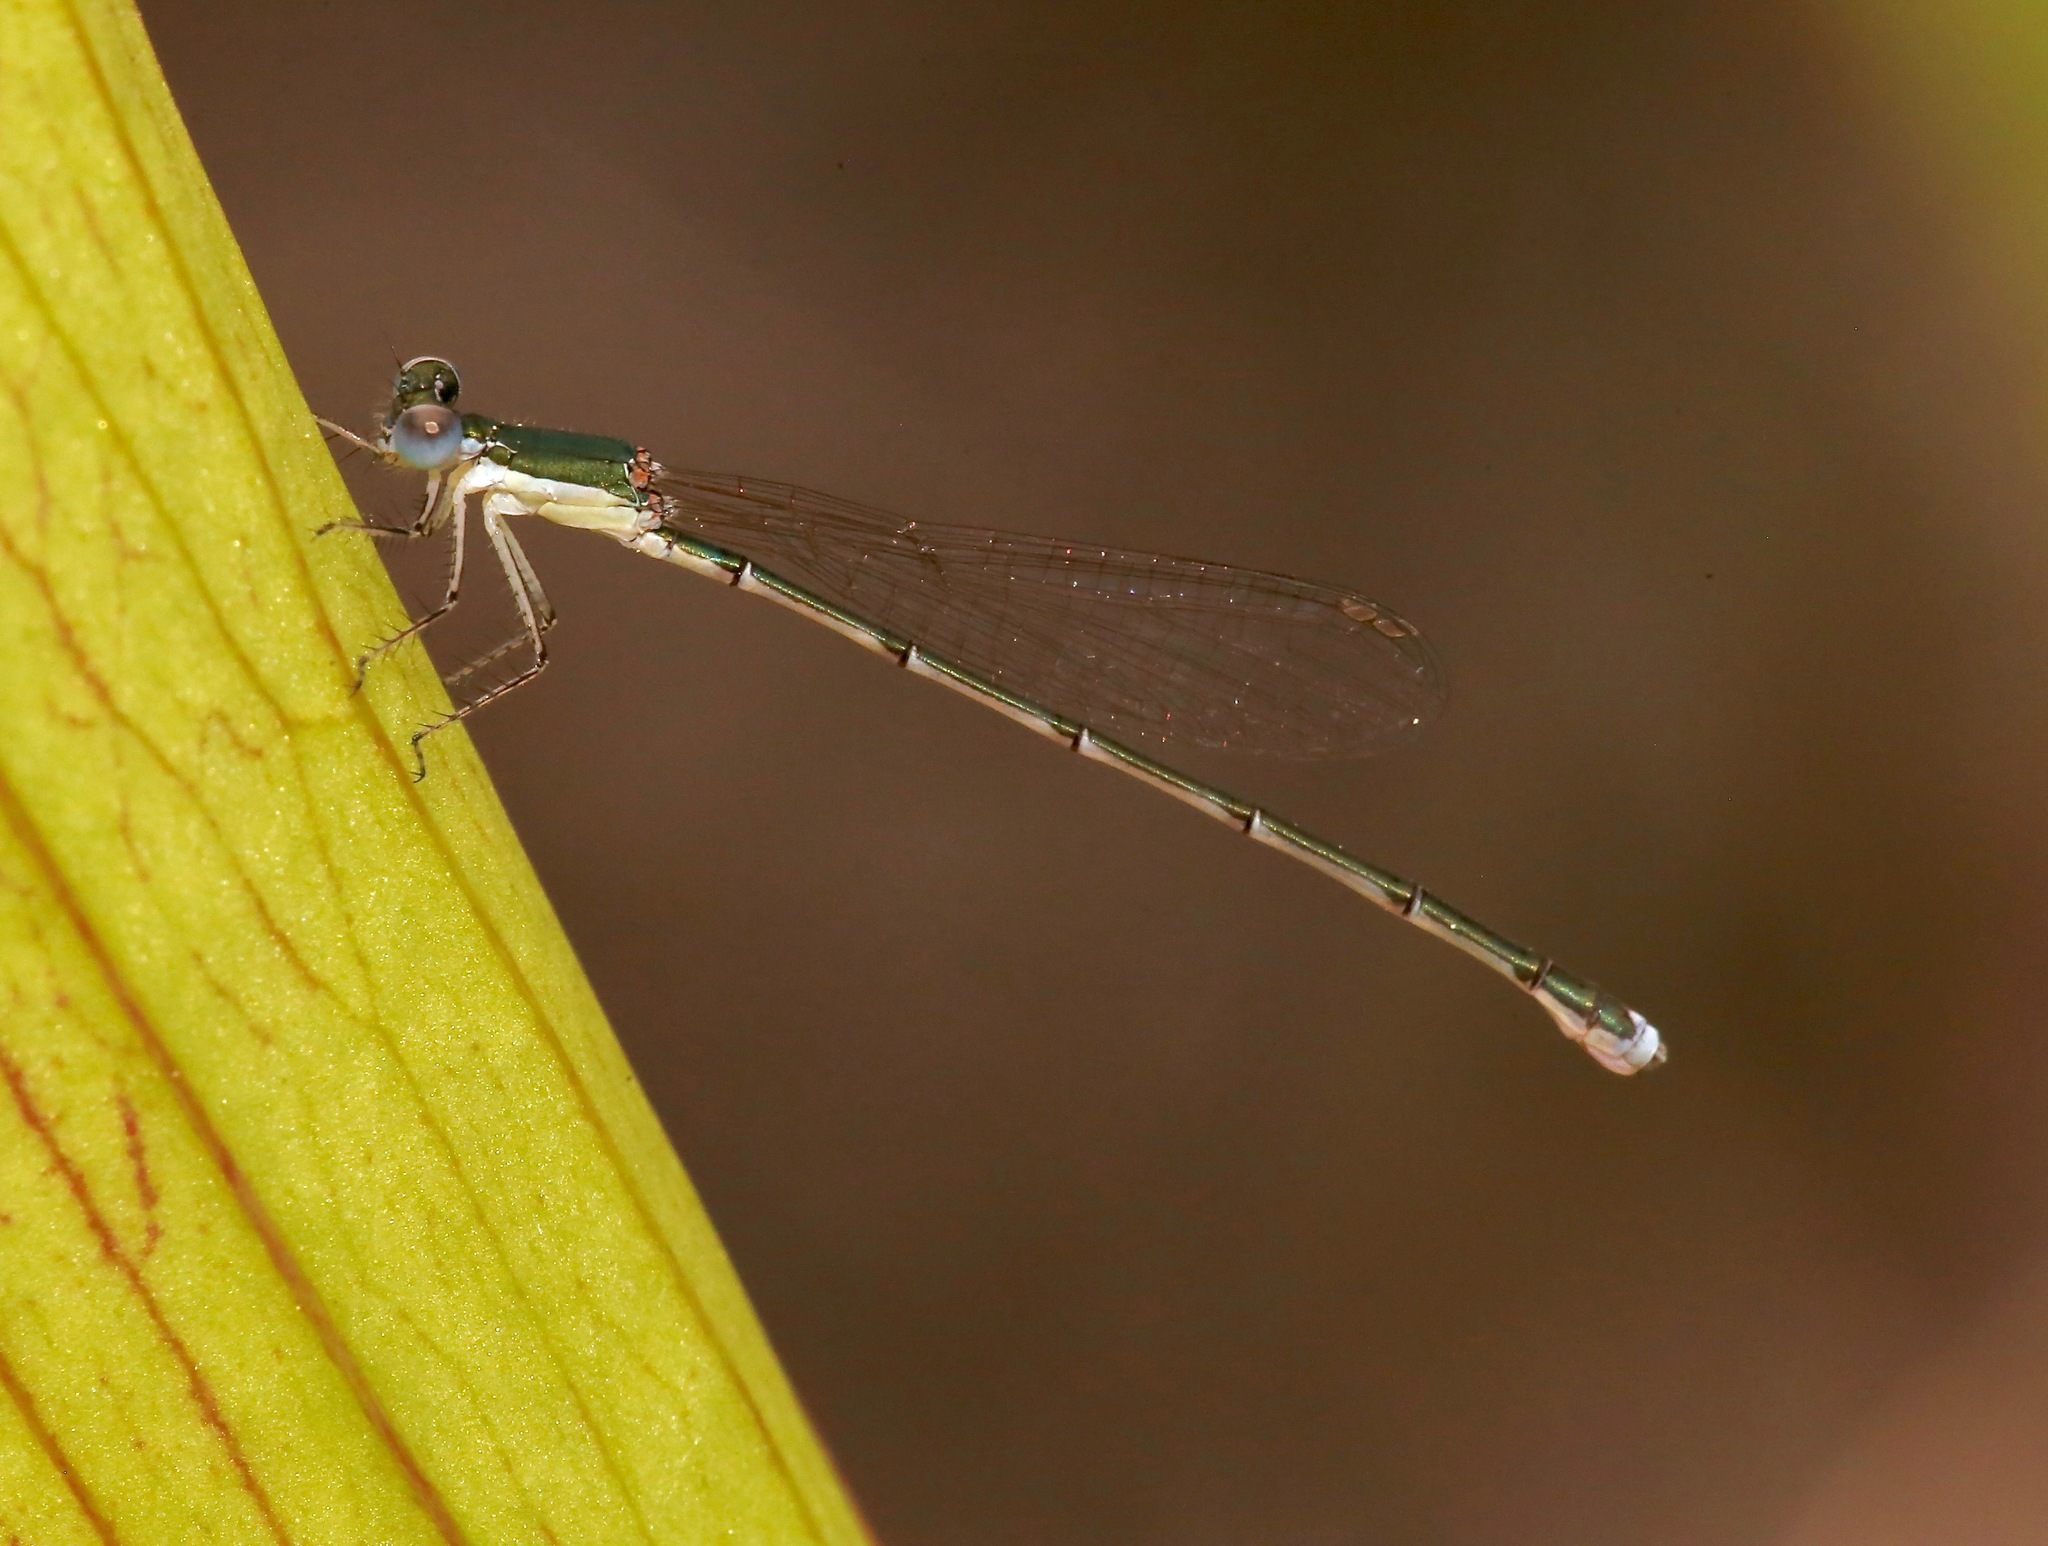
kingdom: Animalia
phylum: Arthropoda
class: Insecta
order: Odonata
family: Coenagrionidae
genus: Nehalennia
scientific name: Nehalennia integricollis
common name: Southern sprite
